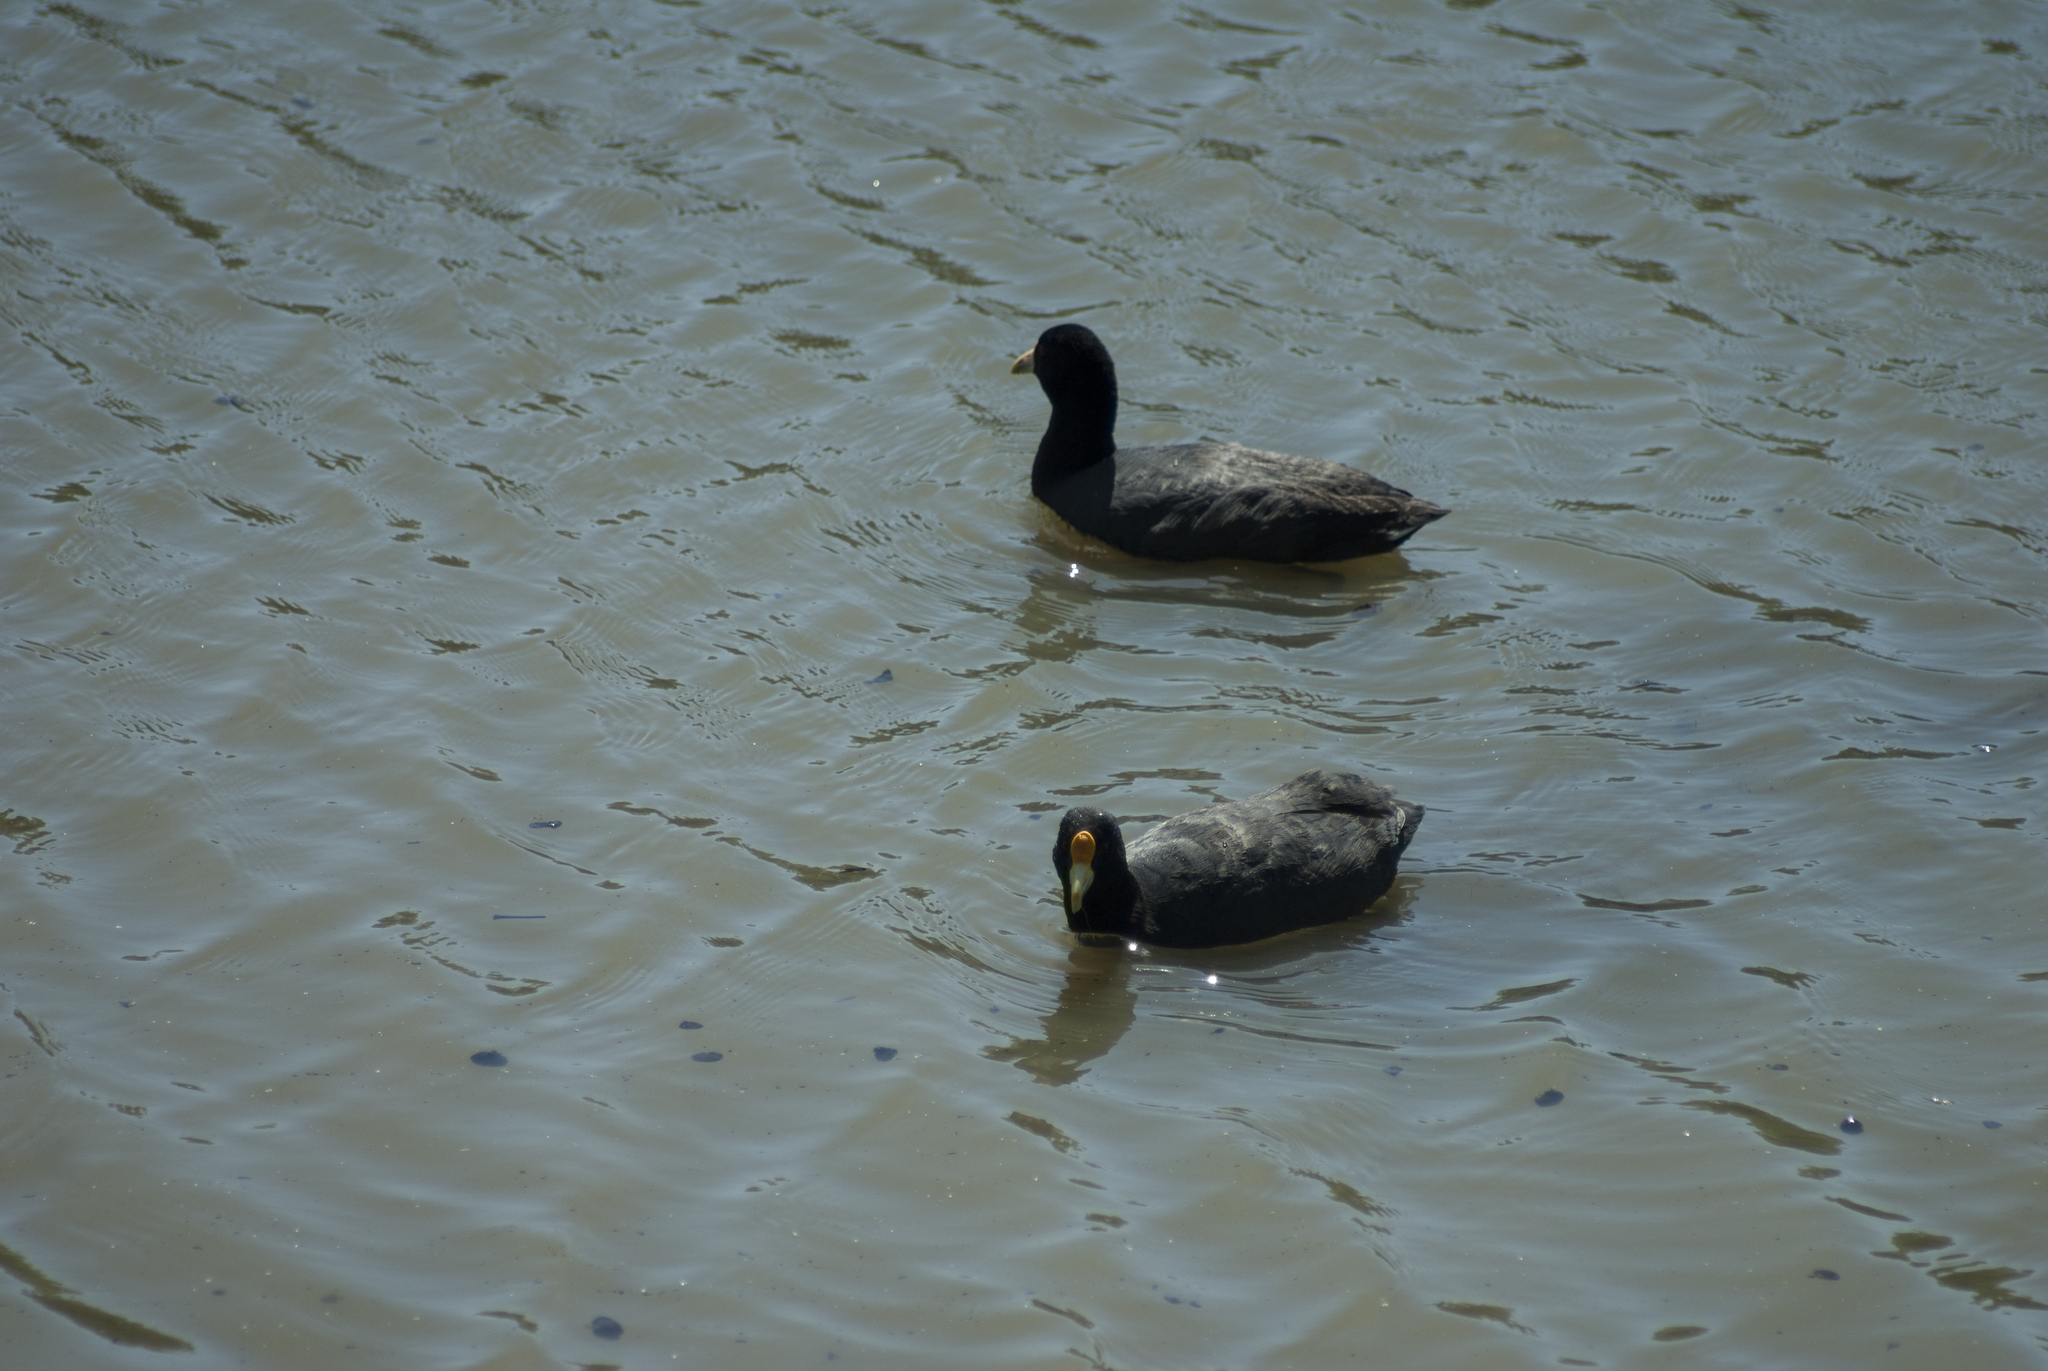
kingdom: Animalia
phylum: Chordata
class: Aves
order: Gruiformes
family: Rallidae
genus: Fulica
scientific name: Fulica leucoptera
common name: White-winged coot
